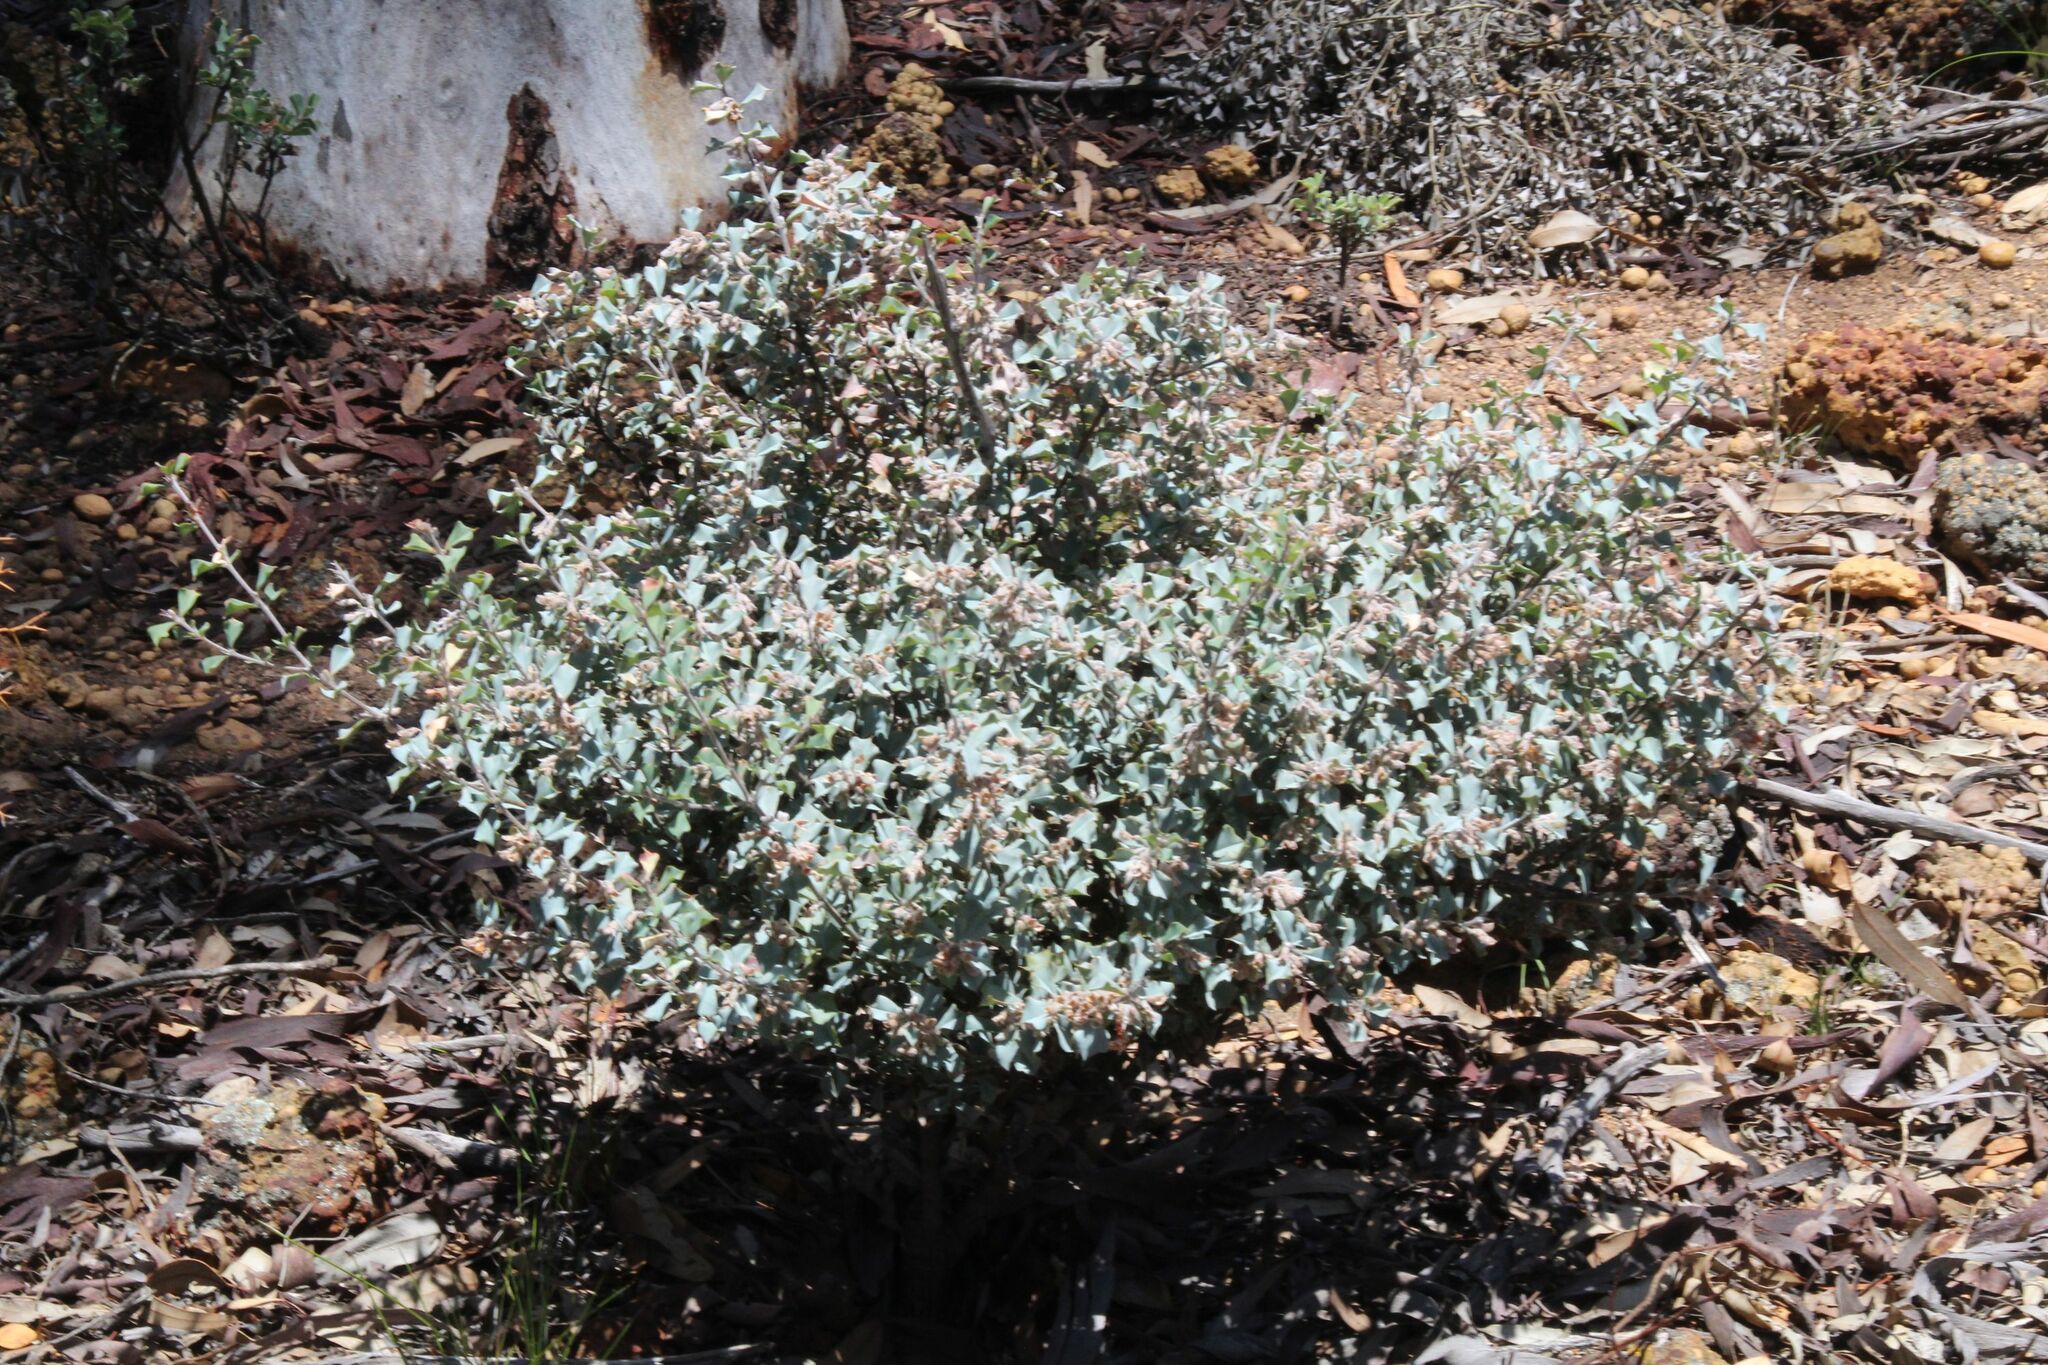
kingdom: Plantae
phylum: Tracheophyta
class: Magnoliopsida
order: Fabales
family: Fabaceae
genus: Gastrolobium
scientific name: Gastrolobium cyanophyllum
